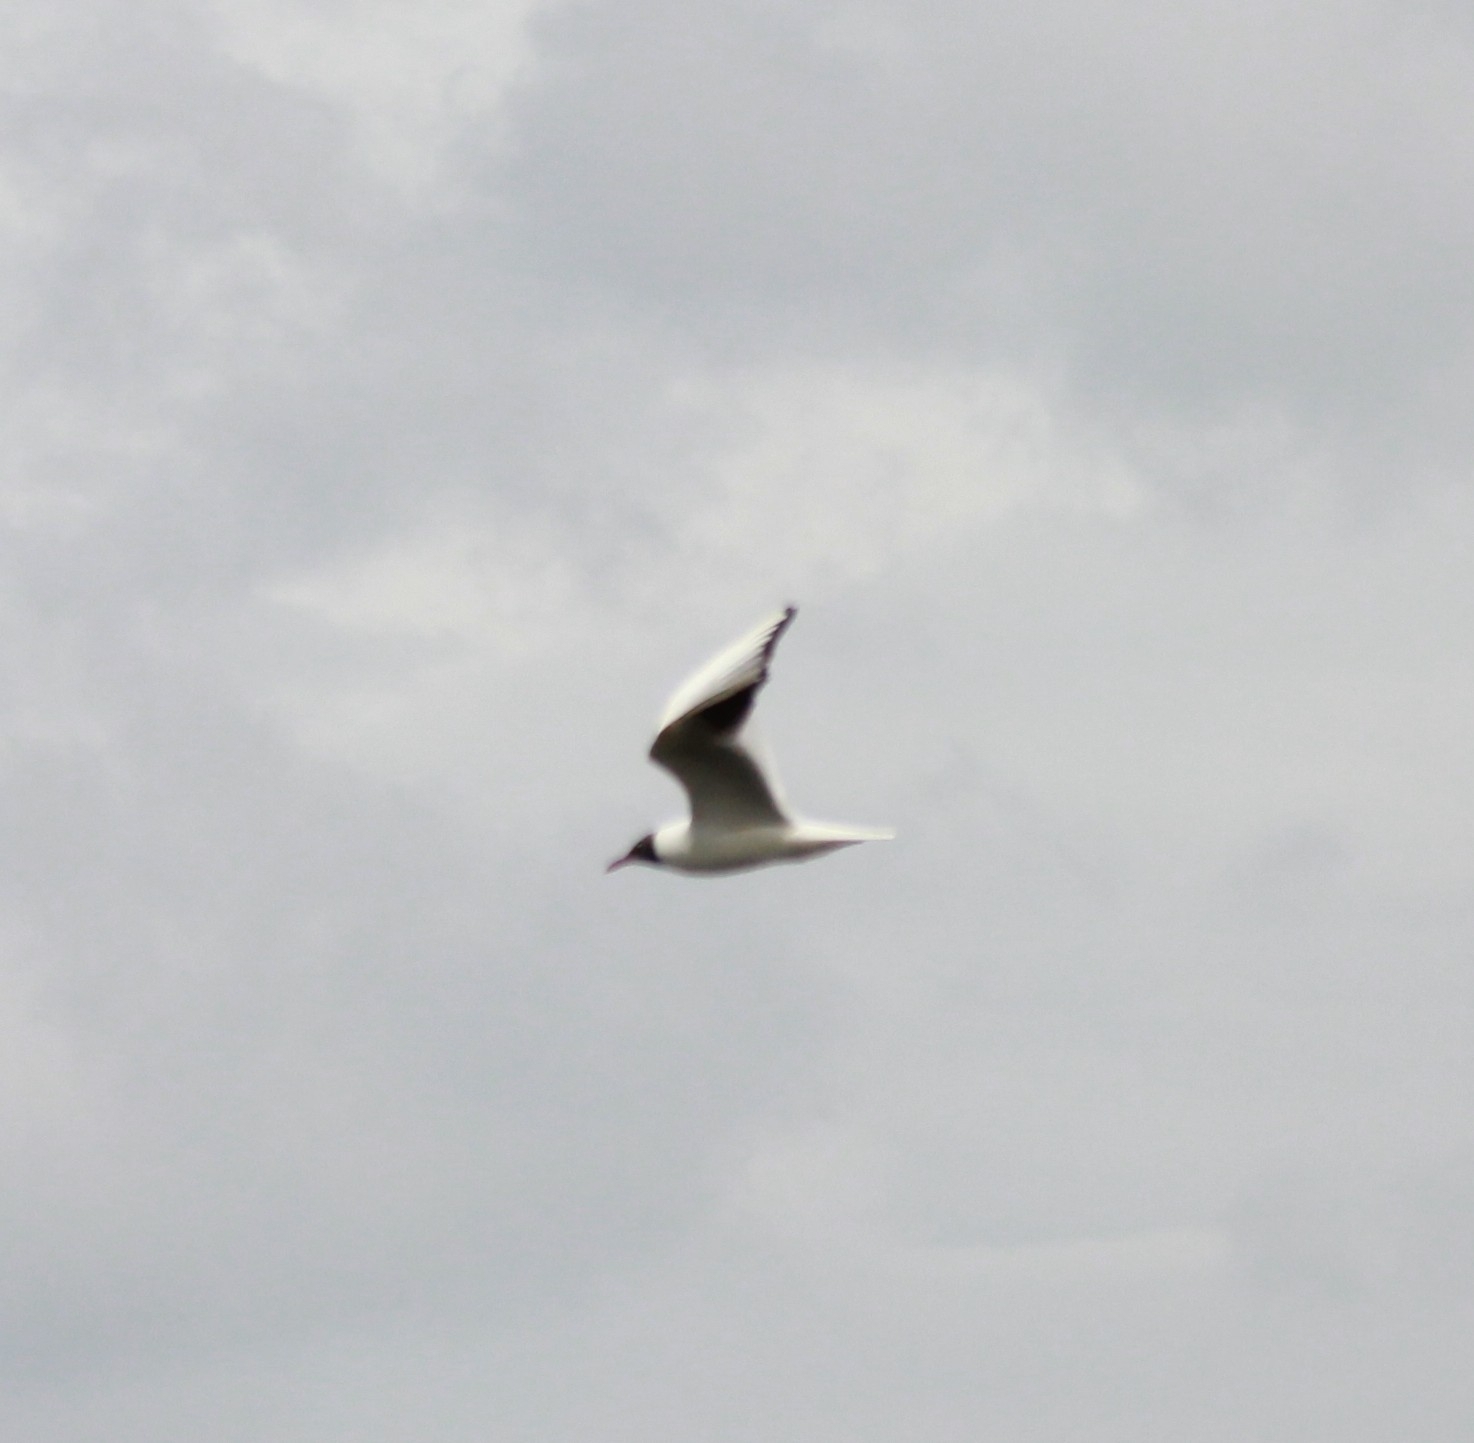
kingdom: Animalia
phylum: Chordata
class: Aves
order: Charadriiformes
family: Laridae
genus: Chroicocephalus
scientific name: Chroicocephalus ridibundus
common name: Black-headed gull
